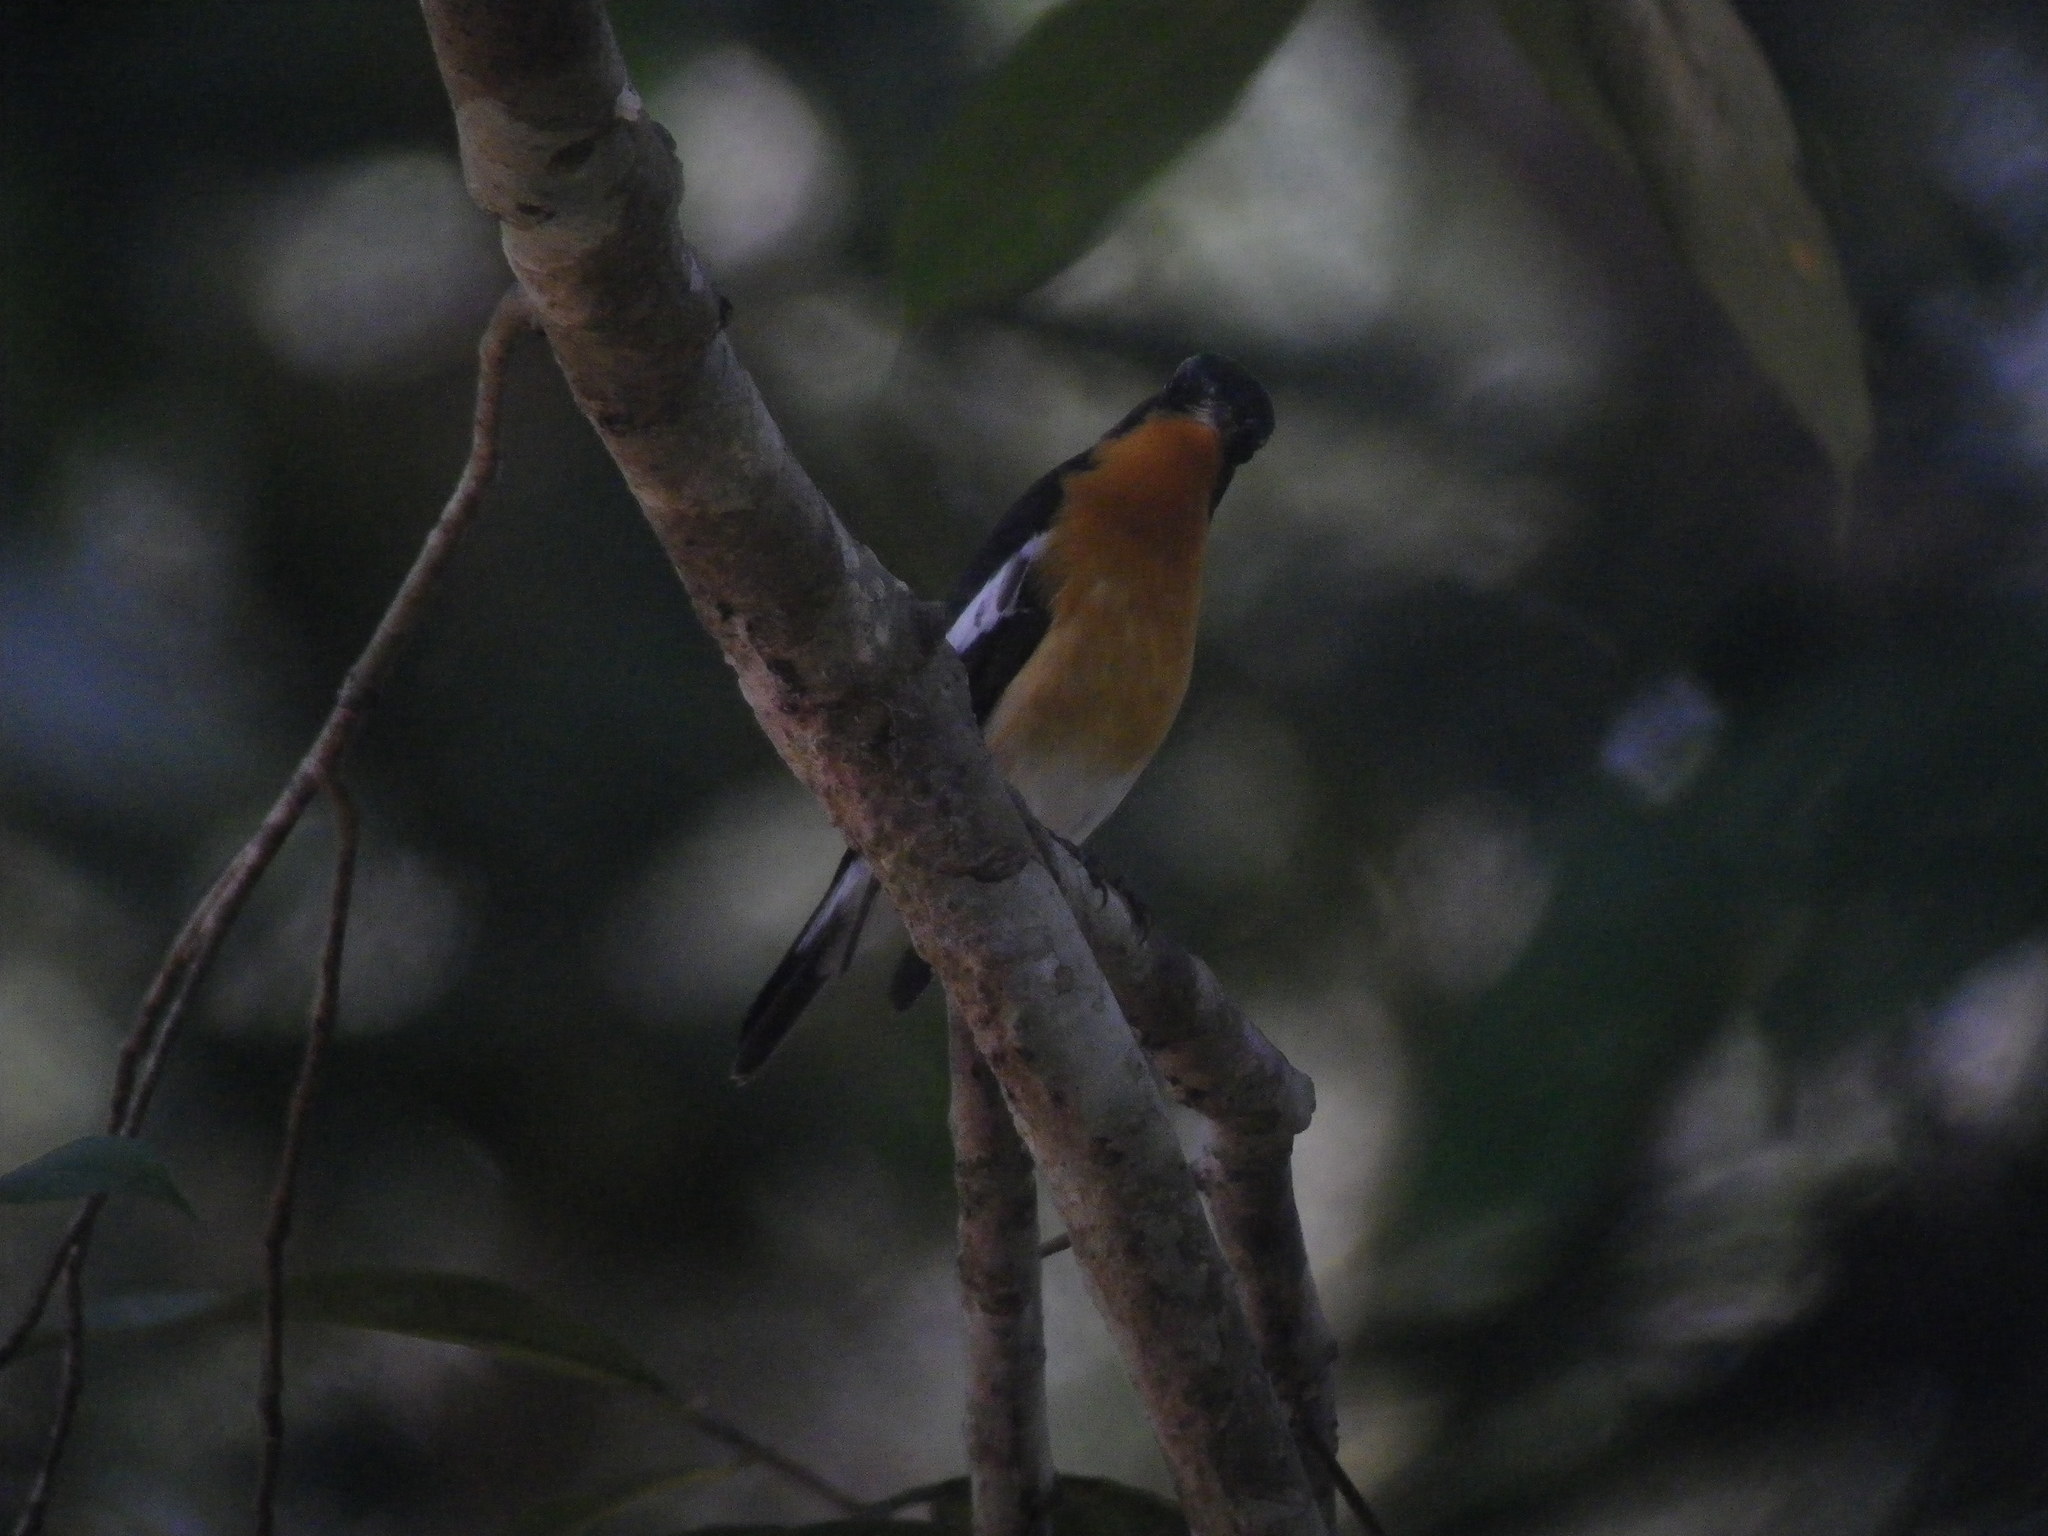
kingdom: Animalia
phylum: Chordata
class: Aves
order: Passeriformes
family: Muscicapidae
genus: Ficedula
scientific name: Ficedula mugimaki
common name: Mugimaki flycatcher
